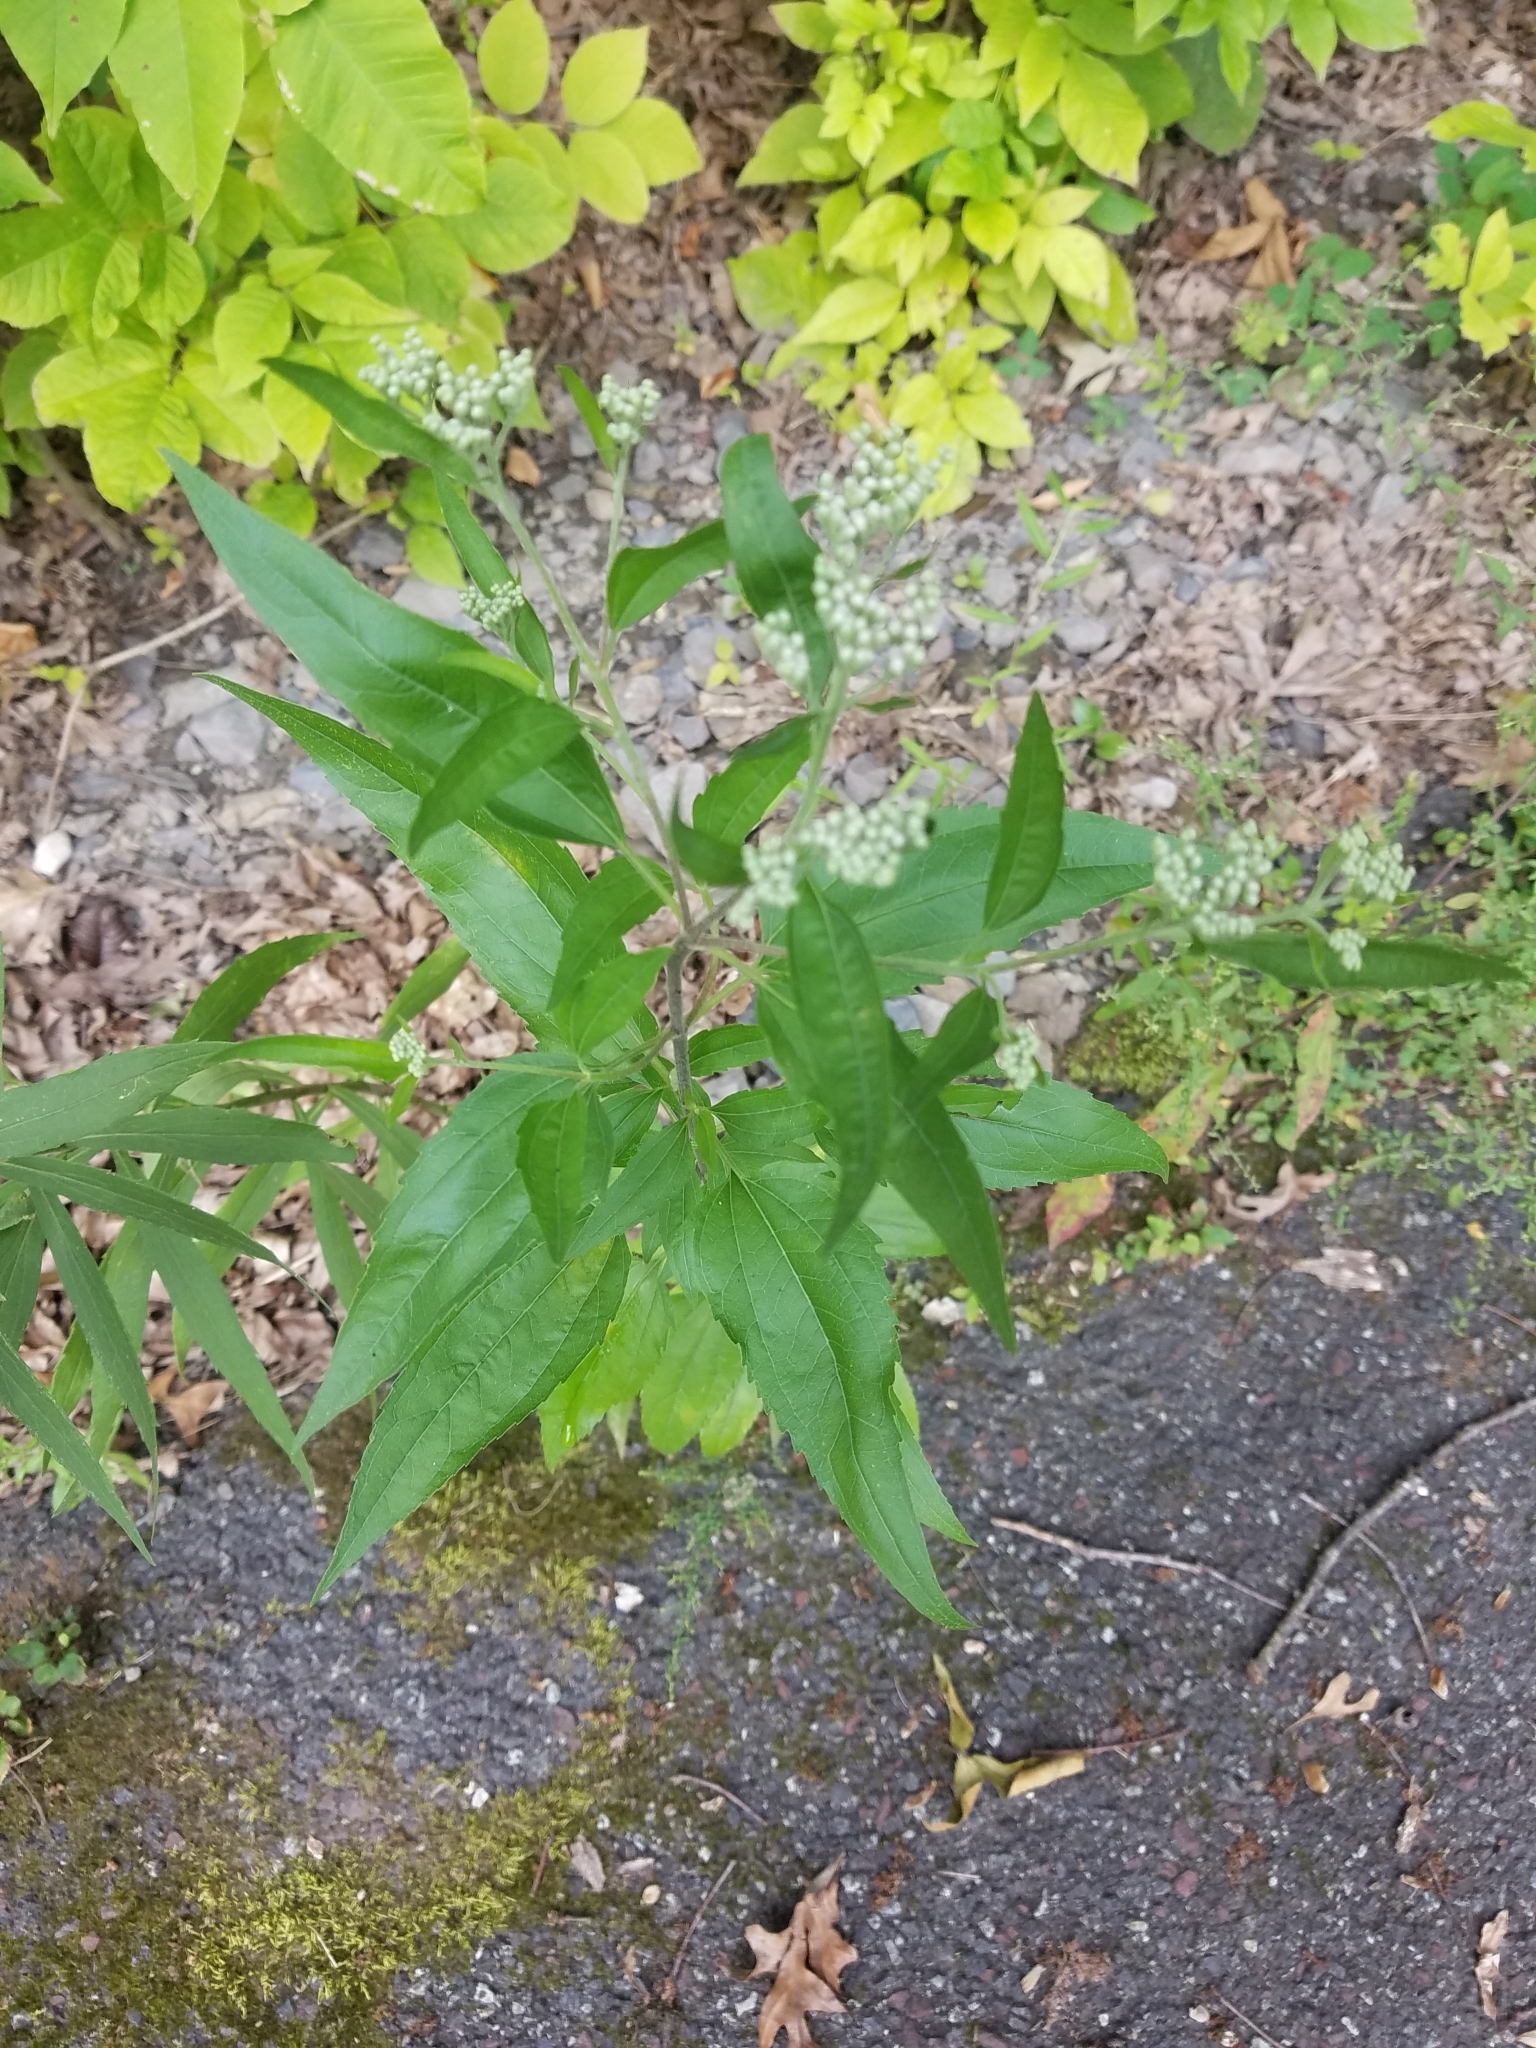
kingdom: Plantae
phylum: Tracheophyta
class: Magnoliopsida
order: Asterales
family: Asteraceae
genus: Eupatorium
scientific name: Eupatorium serotinum
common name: Late boneset
